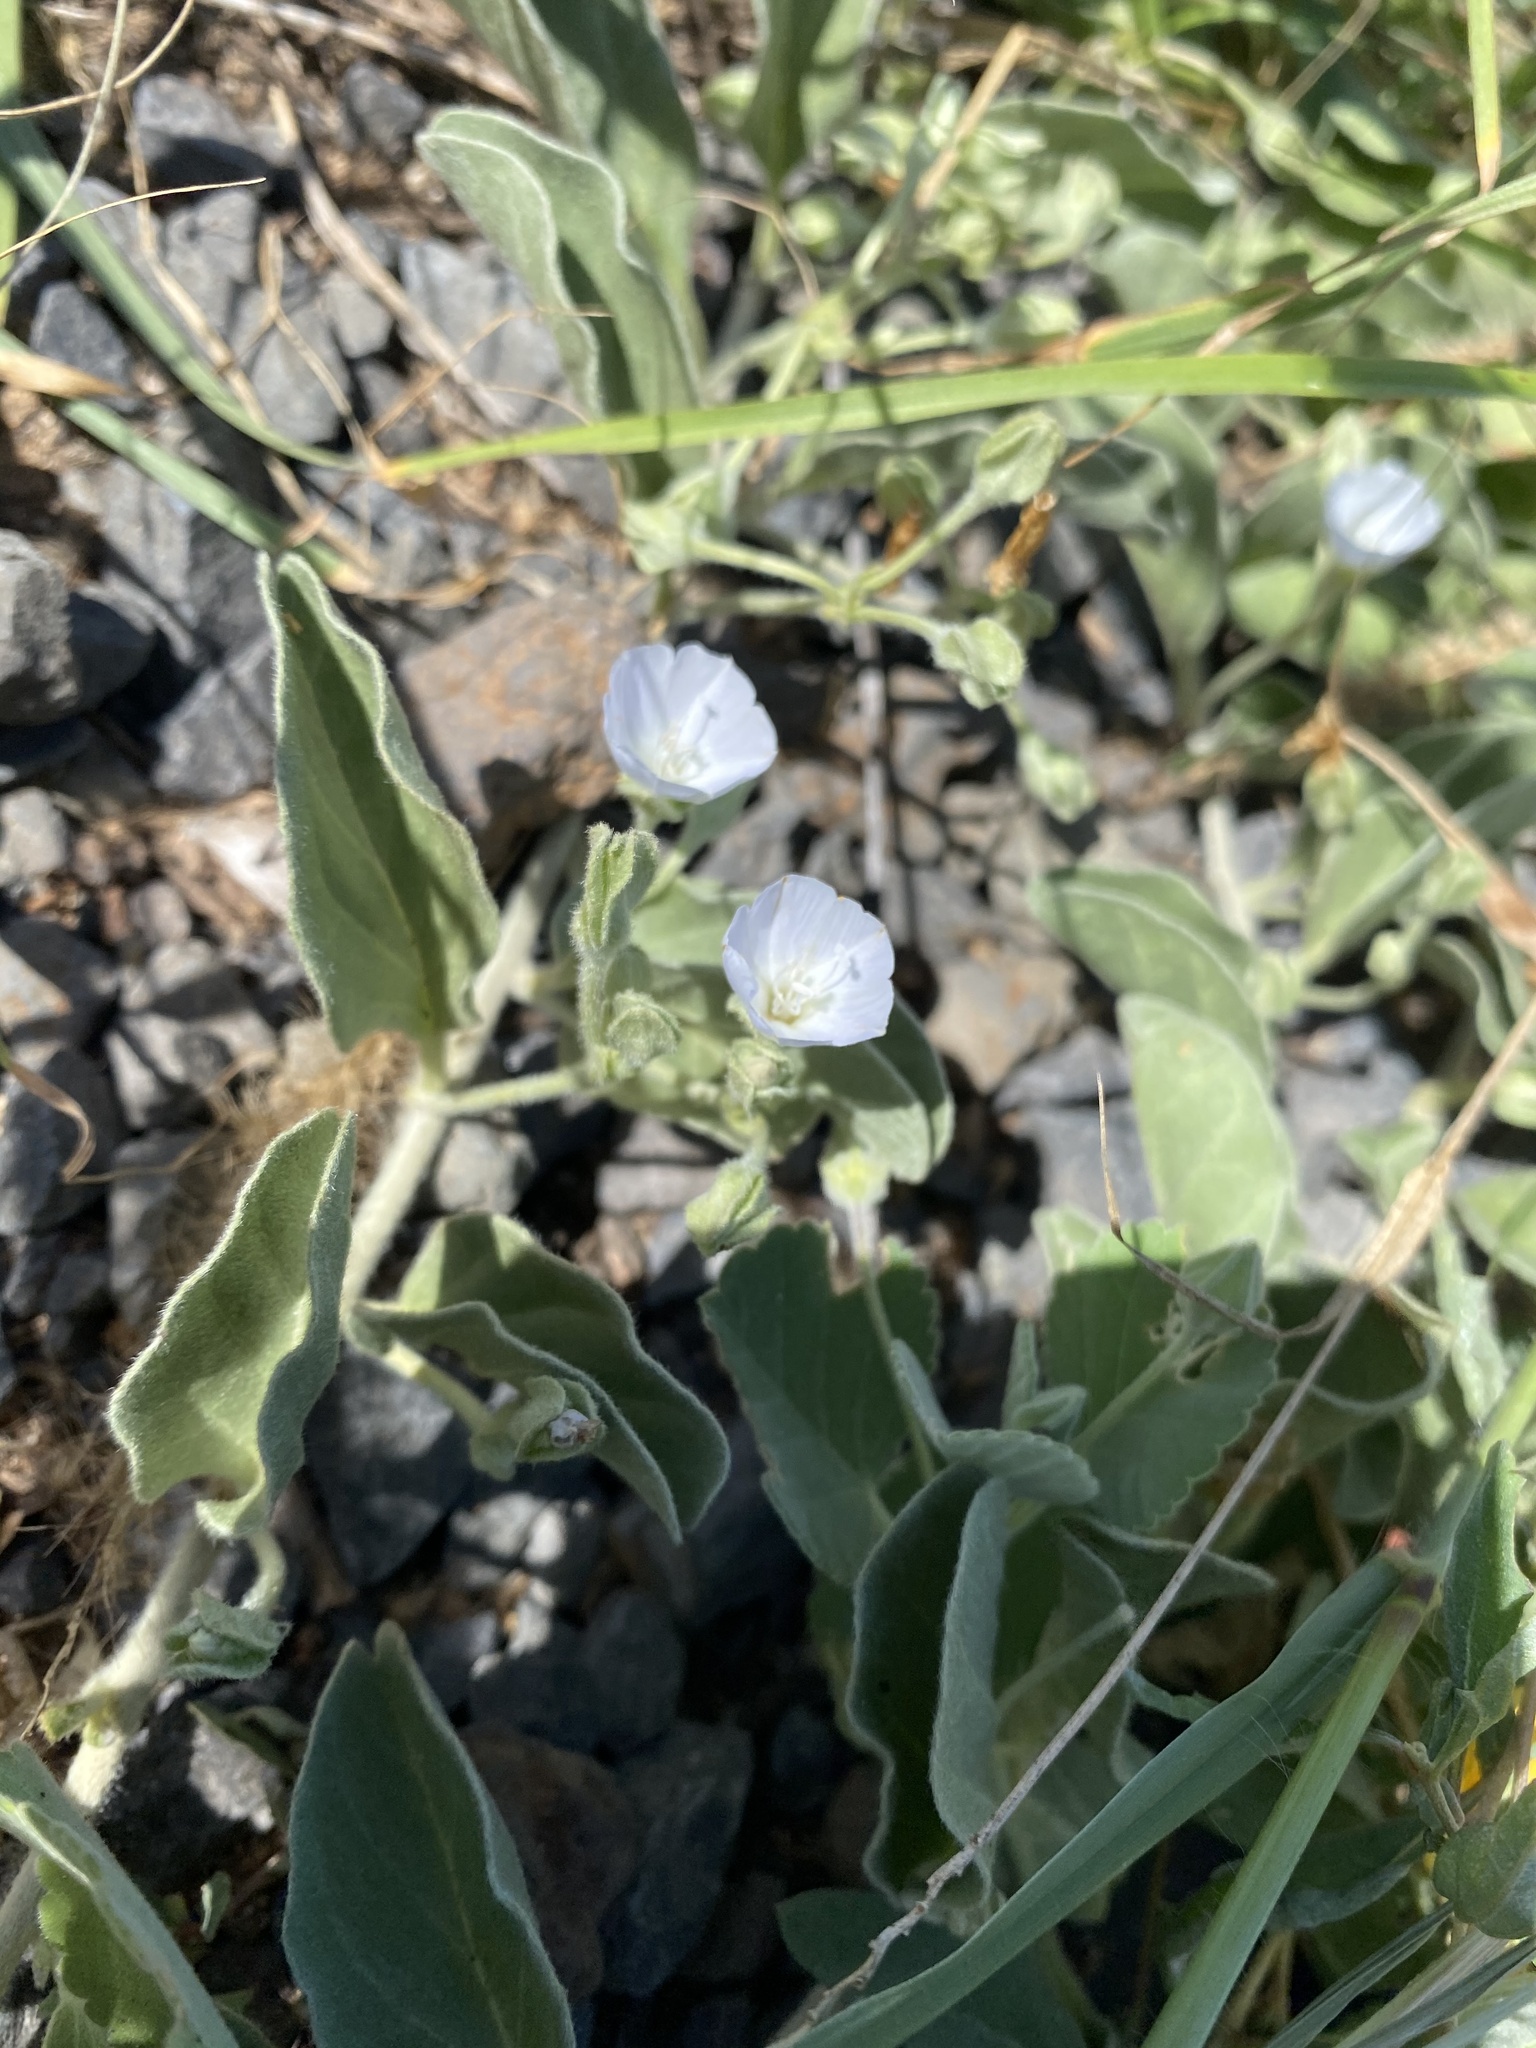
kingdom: Plantae
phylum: Tracheophyta
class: Magnoliopsida
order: Solanales
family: Convolvulaceae
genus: Jacquemontia
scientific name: Jacquemontia sandwicensis
